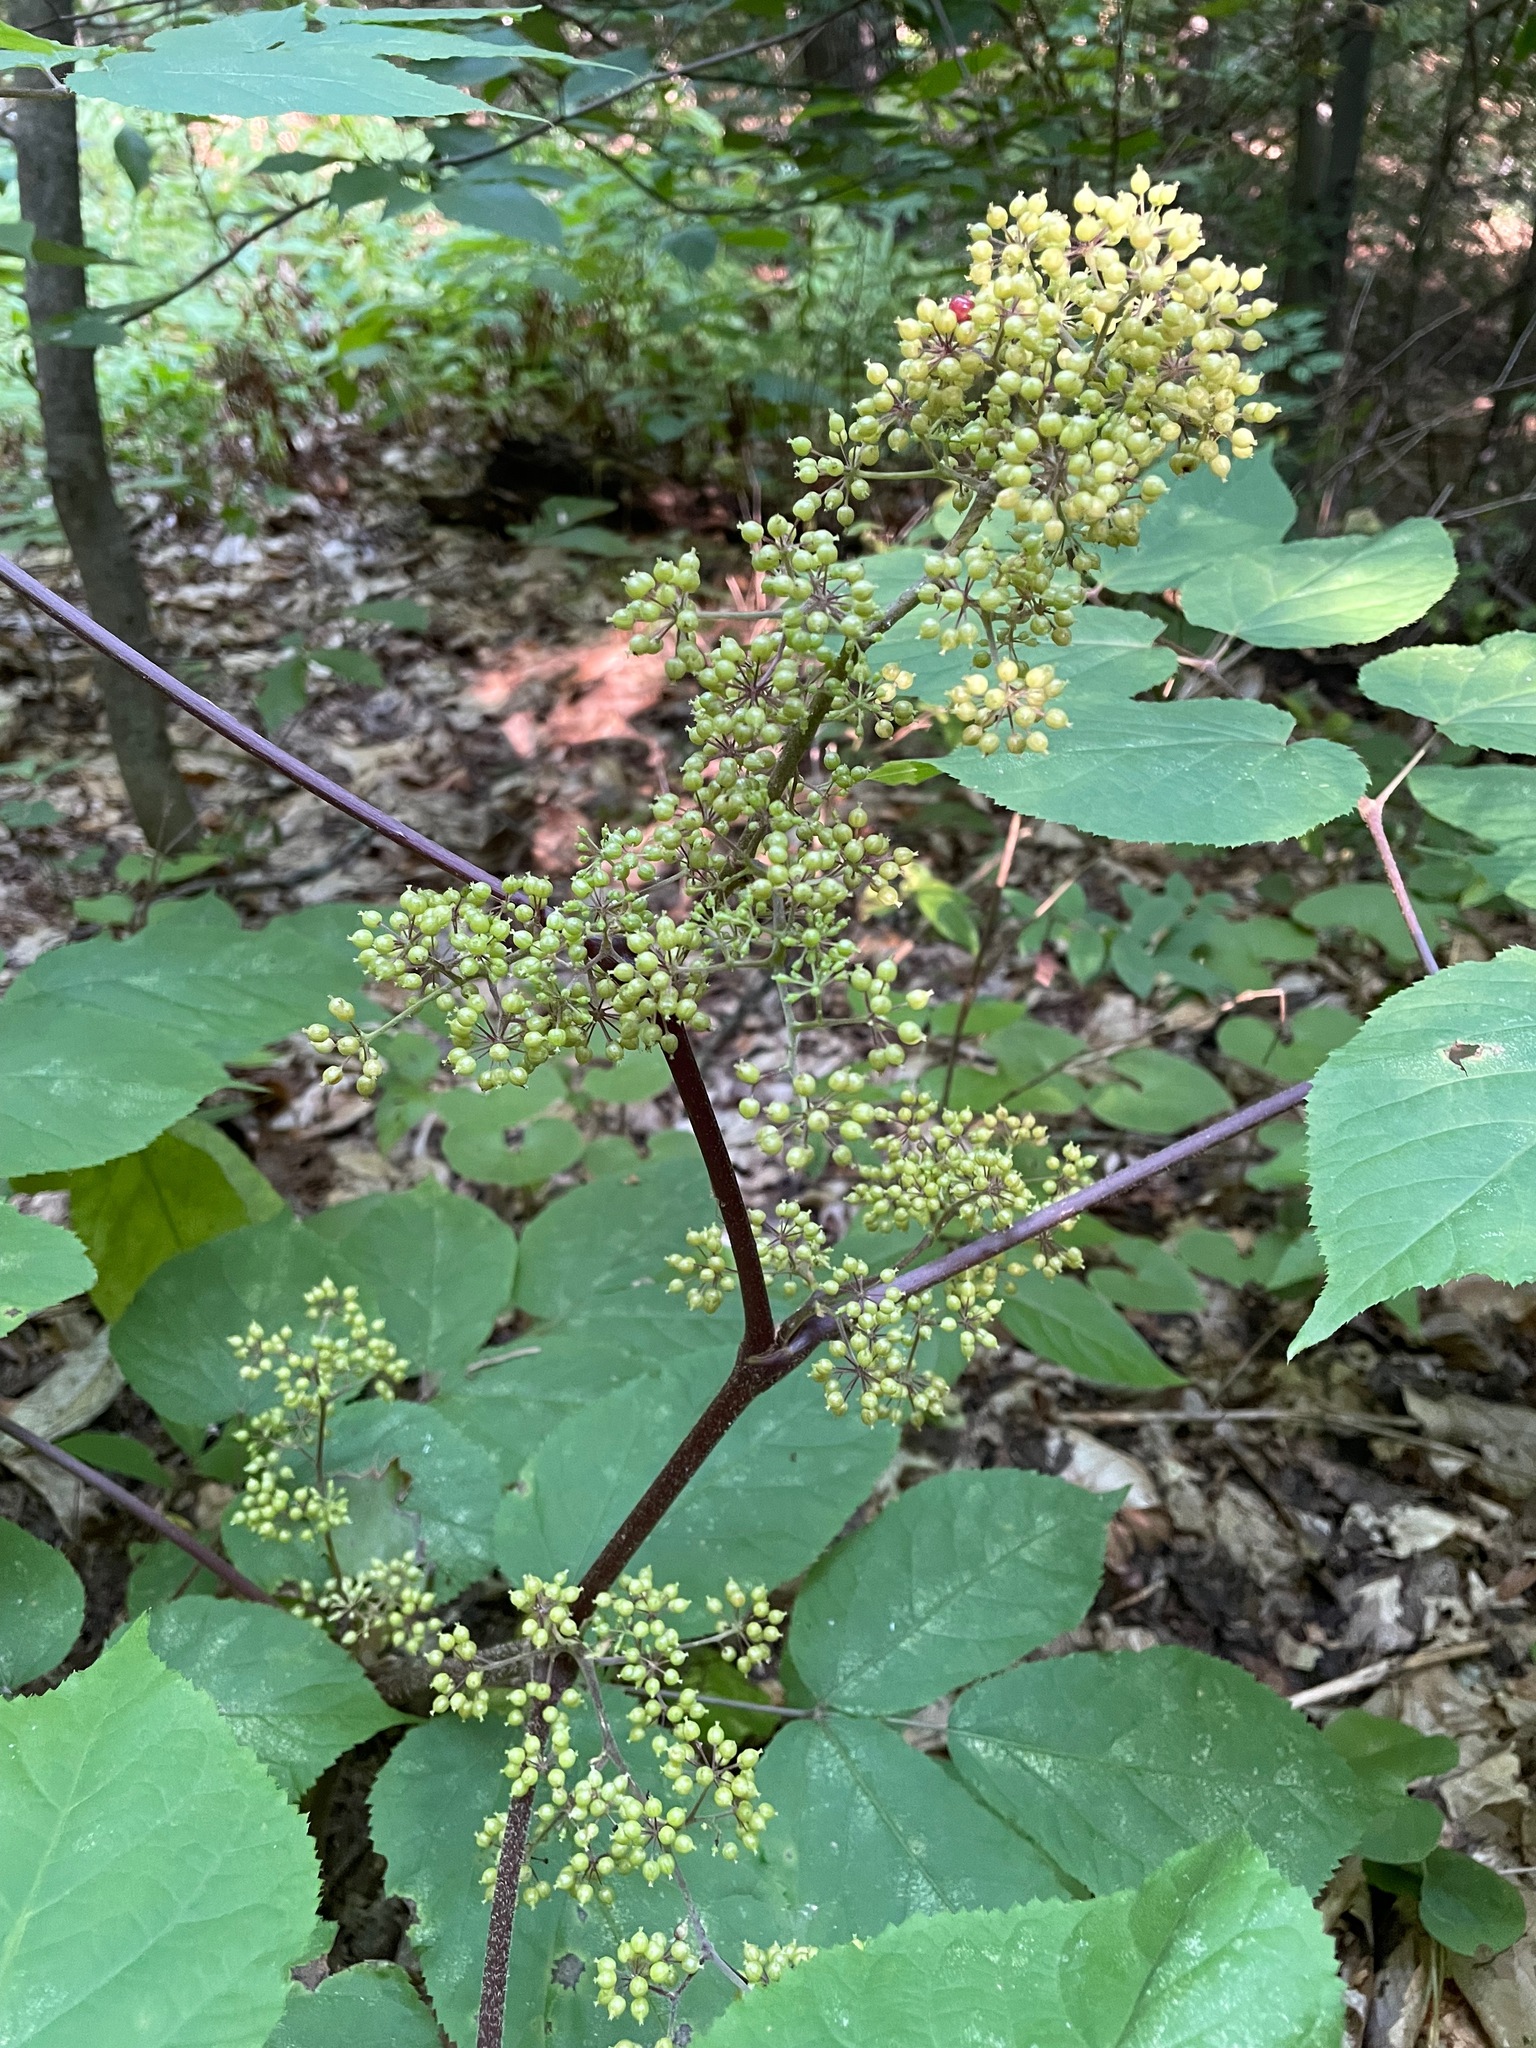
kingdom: Plantae
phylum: Tracheophyta
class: Magnoliopsida
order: Apiales
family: Araliaceae
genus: Aralia
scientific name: Aralia racemosa
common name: American-spikenard
